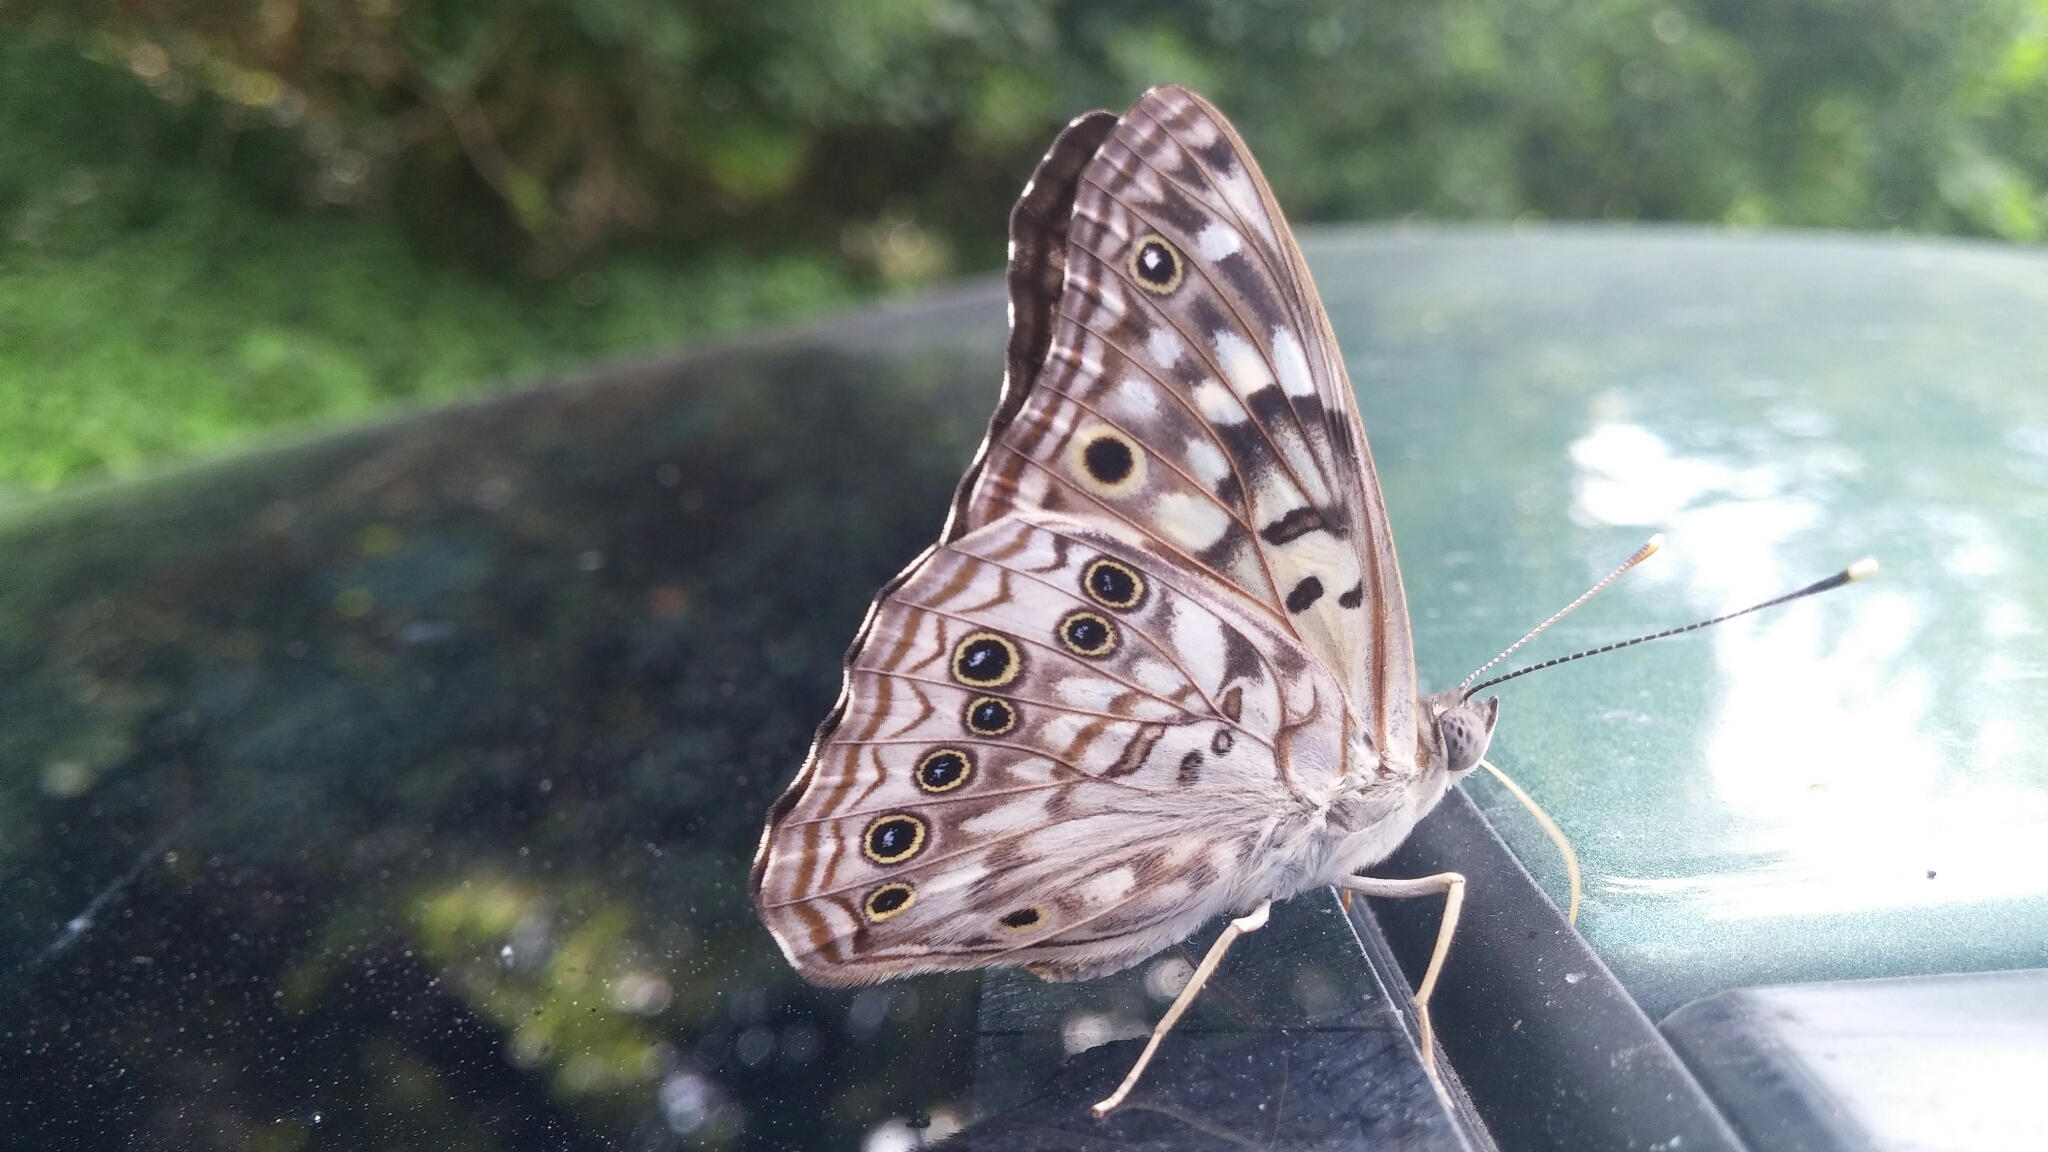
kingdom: Animalia
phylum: Arthropoda
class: Insecta
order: Lepidoptera
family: Nymphalidae
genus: Asterocampa
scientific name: Asterocampa celtis
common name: Hackberry emperor
